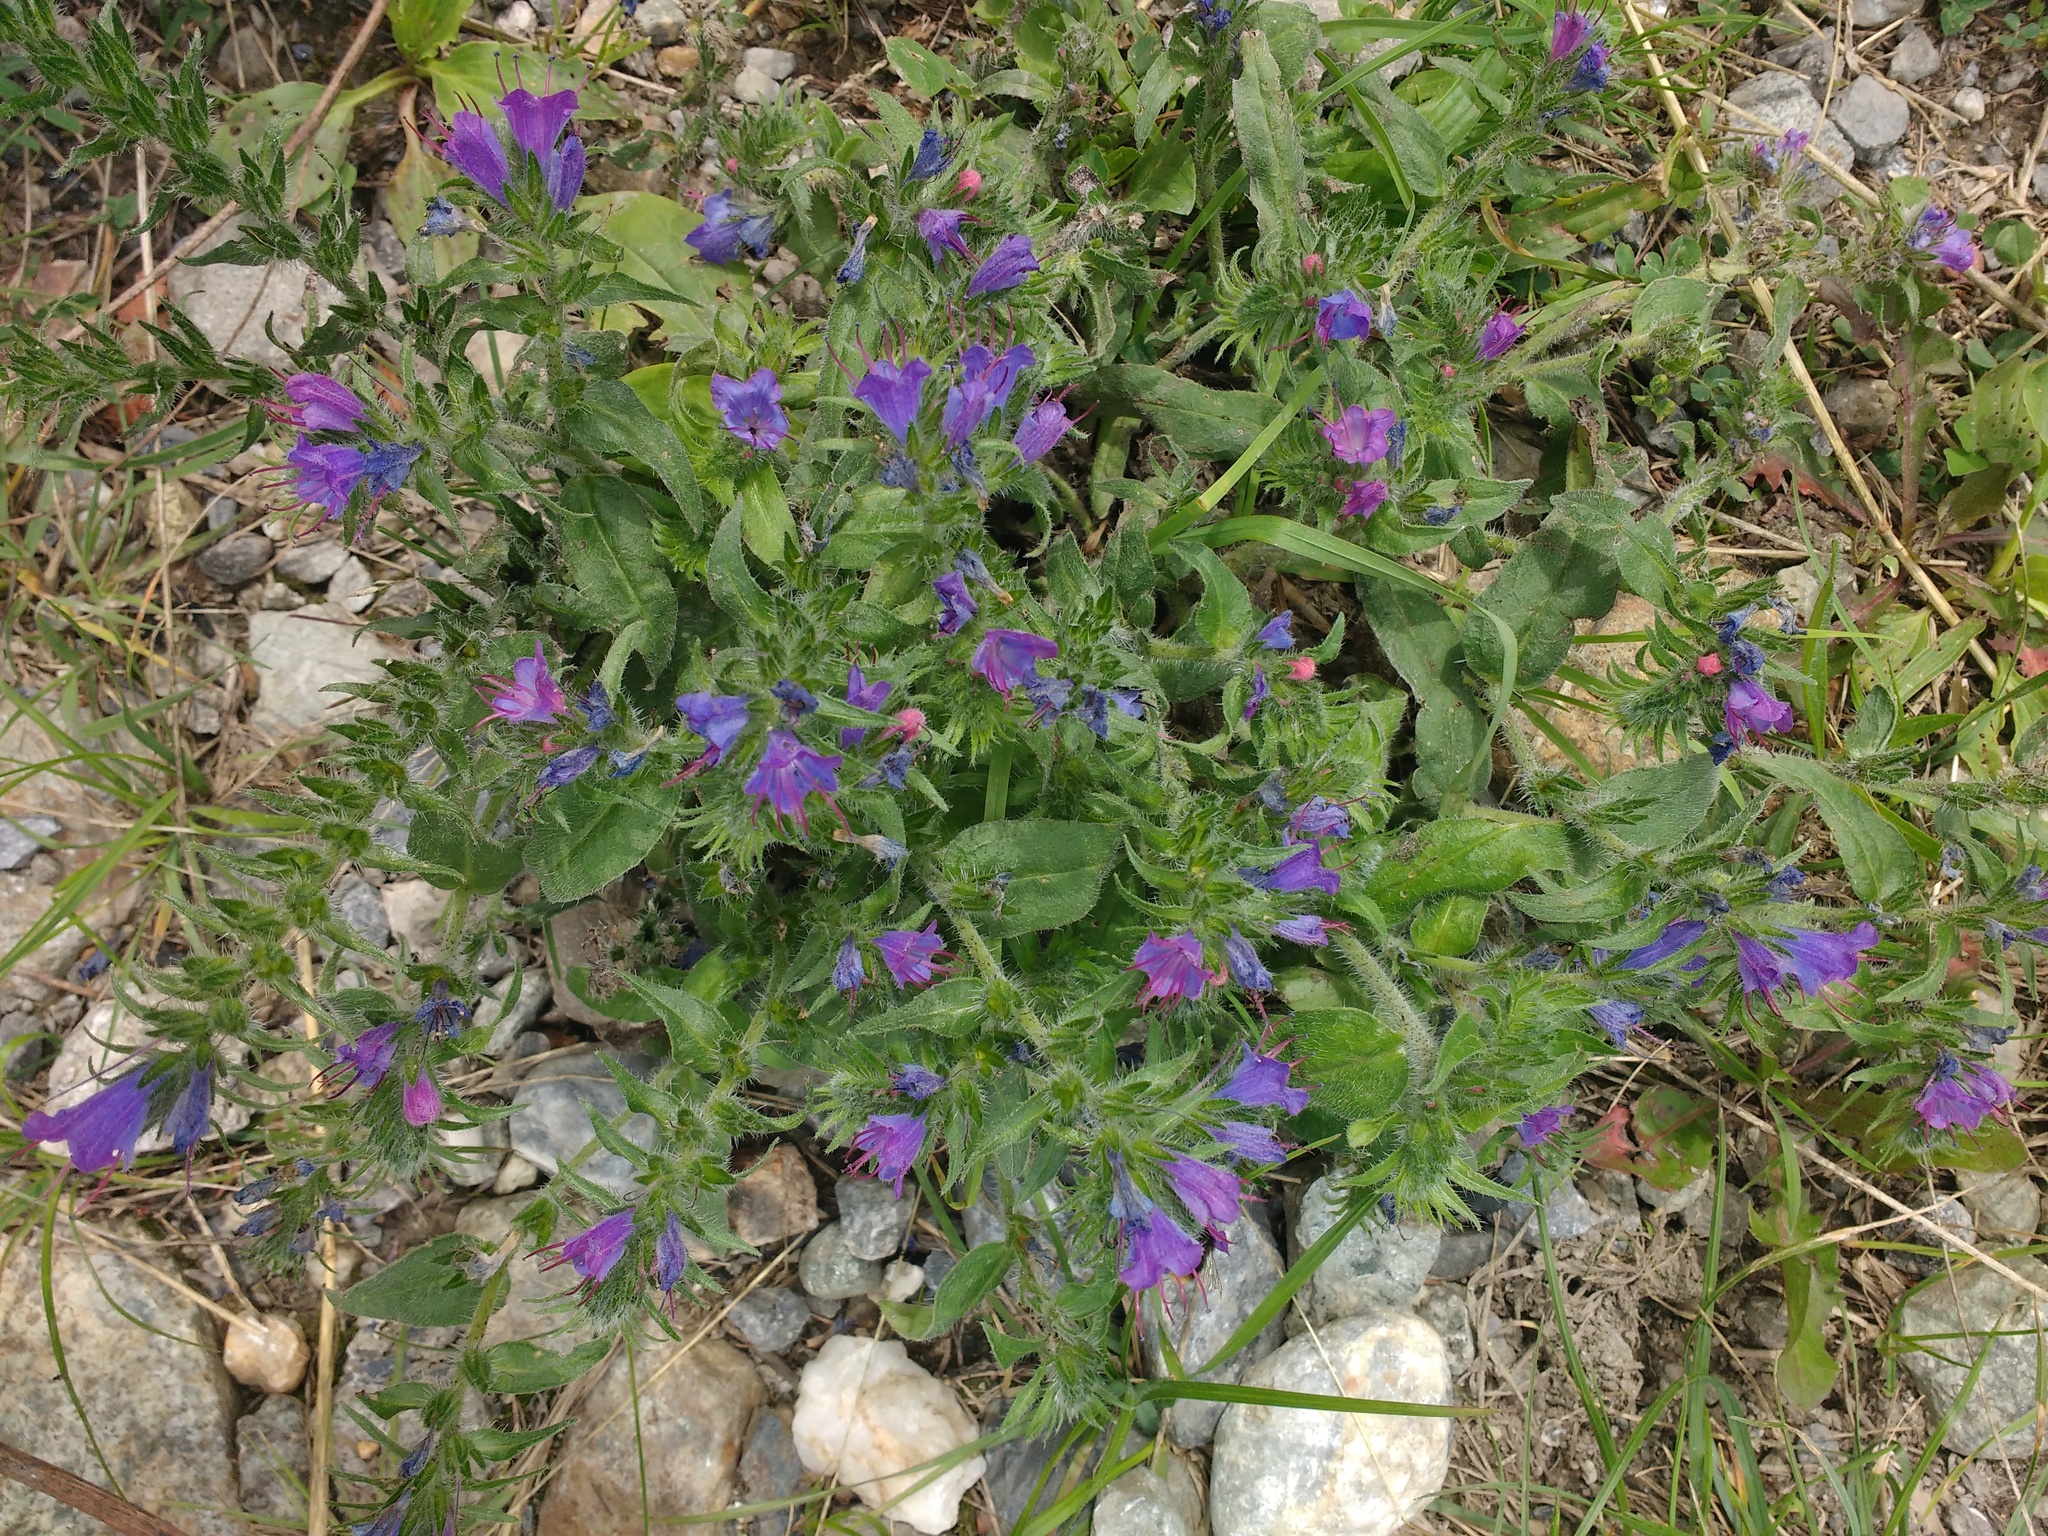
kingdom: Plantae
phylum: Tracheophyta
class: Magnoliopsida
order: Boraginales
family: Boraginaceae
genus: Echium
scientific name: Echium vulgare
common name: Common viper's bugloss
